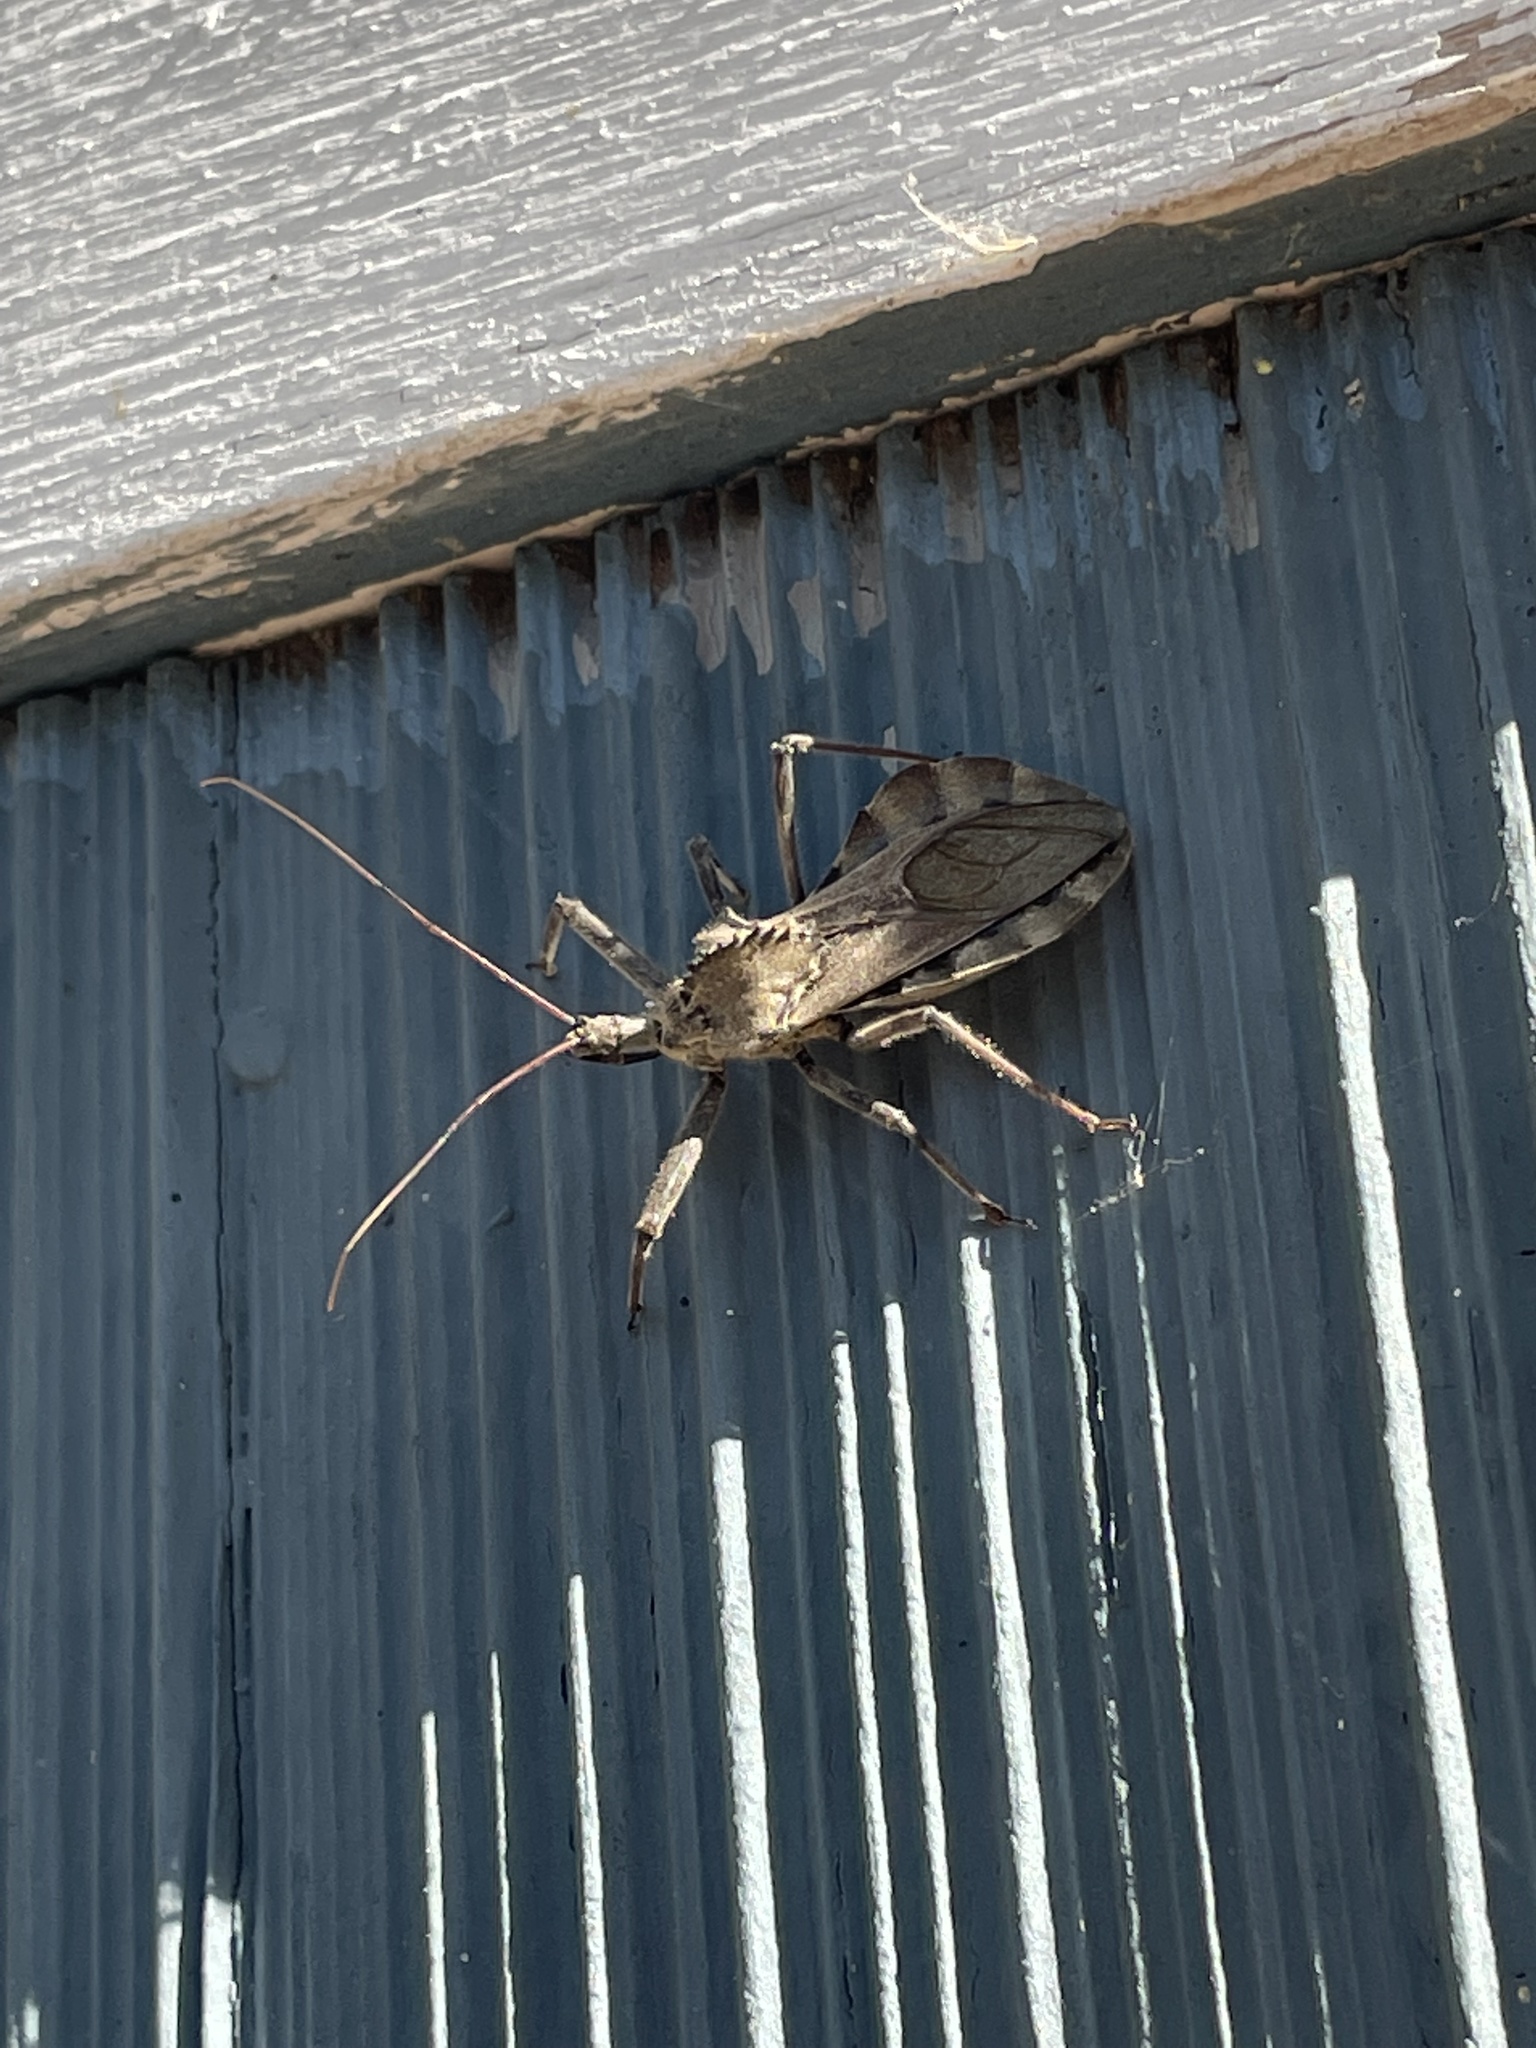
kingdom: Animalia
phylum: Arthropoda
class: Insecta
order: Hemiptera
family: Reduviidae
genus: Arilus
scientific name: Arilus cristatus
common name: North american wheel bug
